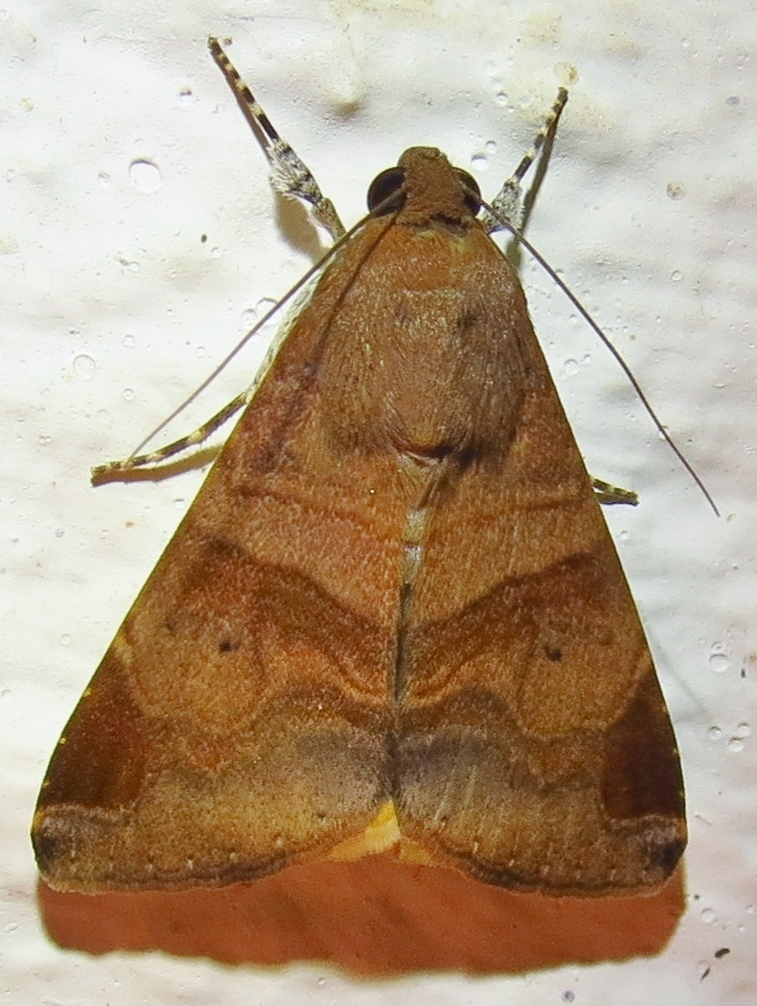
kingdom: Animalia
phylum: Arthropoda
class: Insecta
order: Lepidoptera
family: Erebidae
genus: Melipotis
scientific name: Melipotis januaris
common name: January melipotis moth
